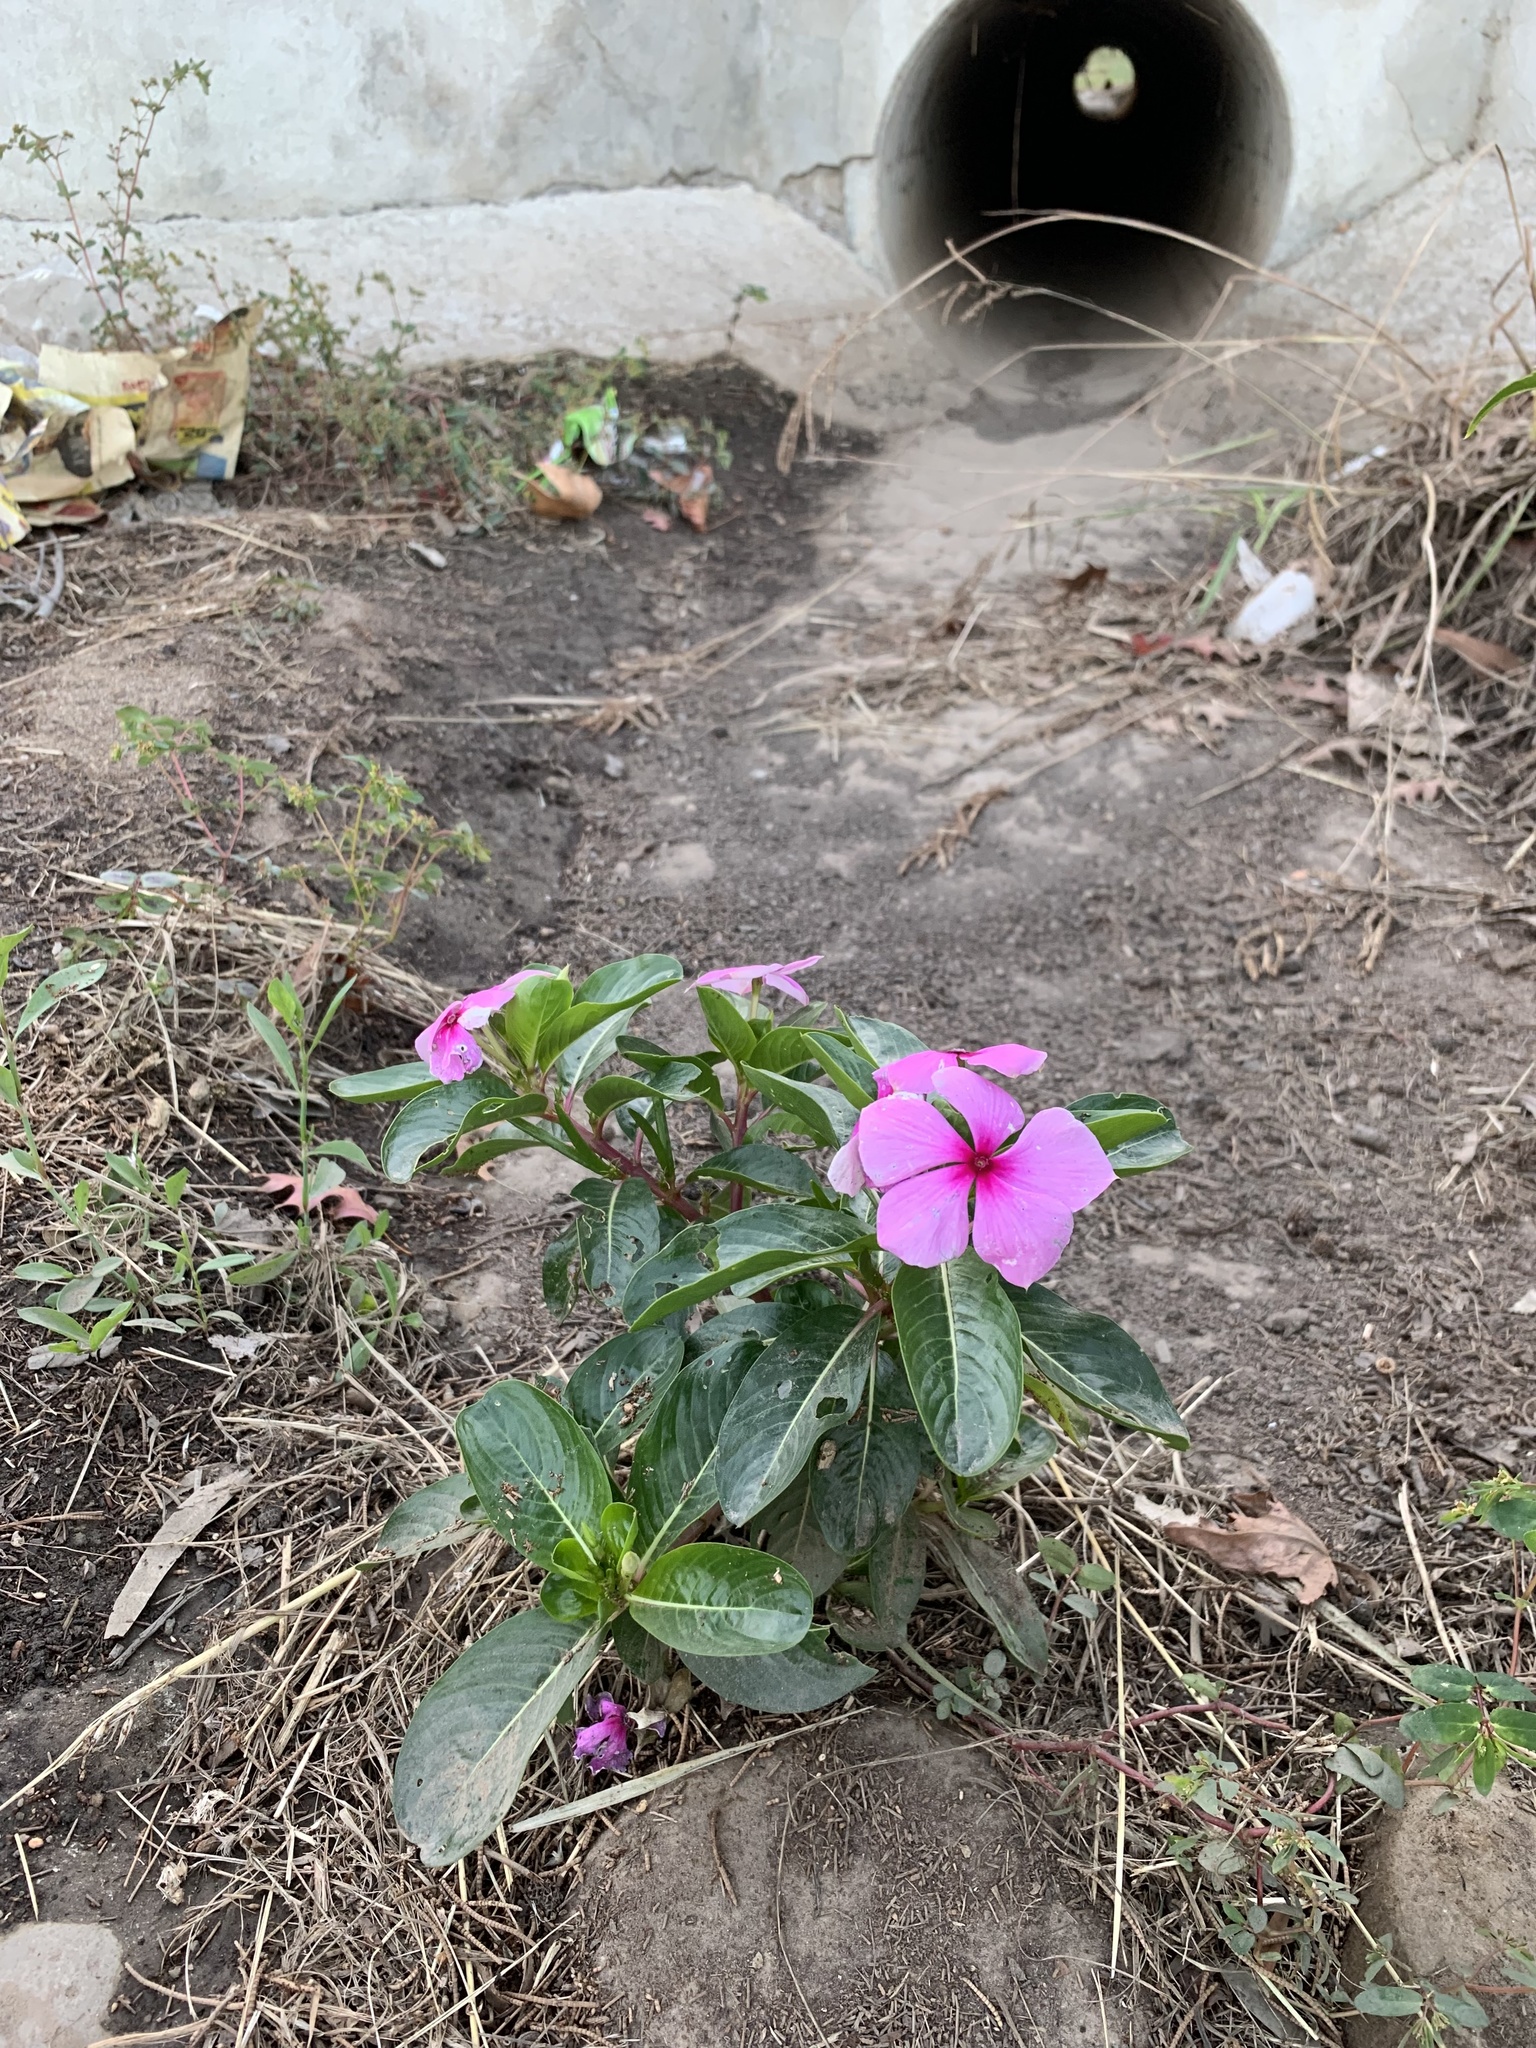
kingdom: Plantae
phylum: Tracheophyta
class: Magnoliopsida
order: Gentianales
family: Apocynaceae
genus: Catharanthus
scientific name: Catharanthus roseus
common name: Madagascar periwinkle
